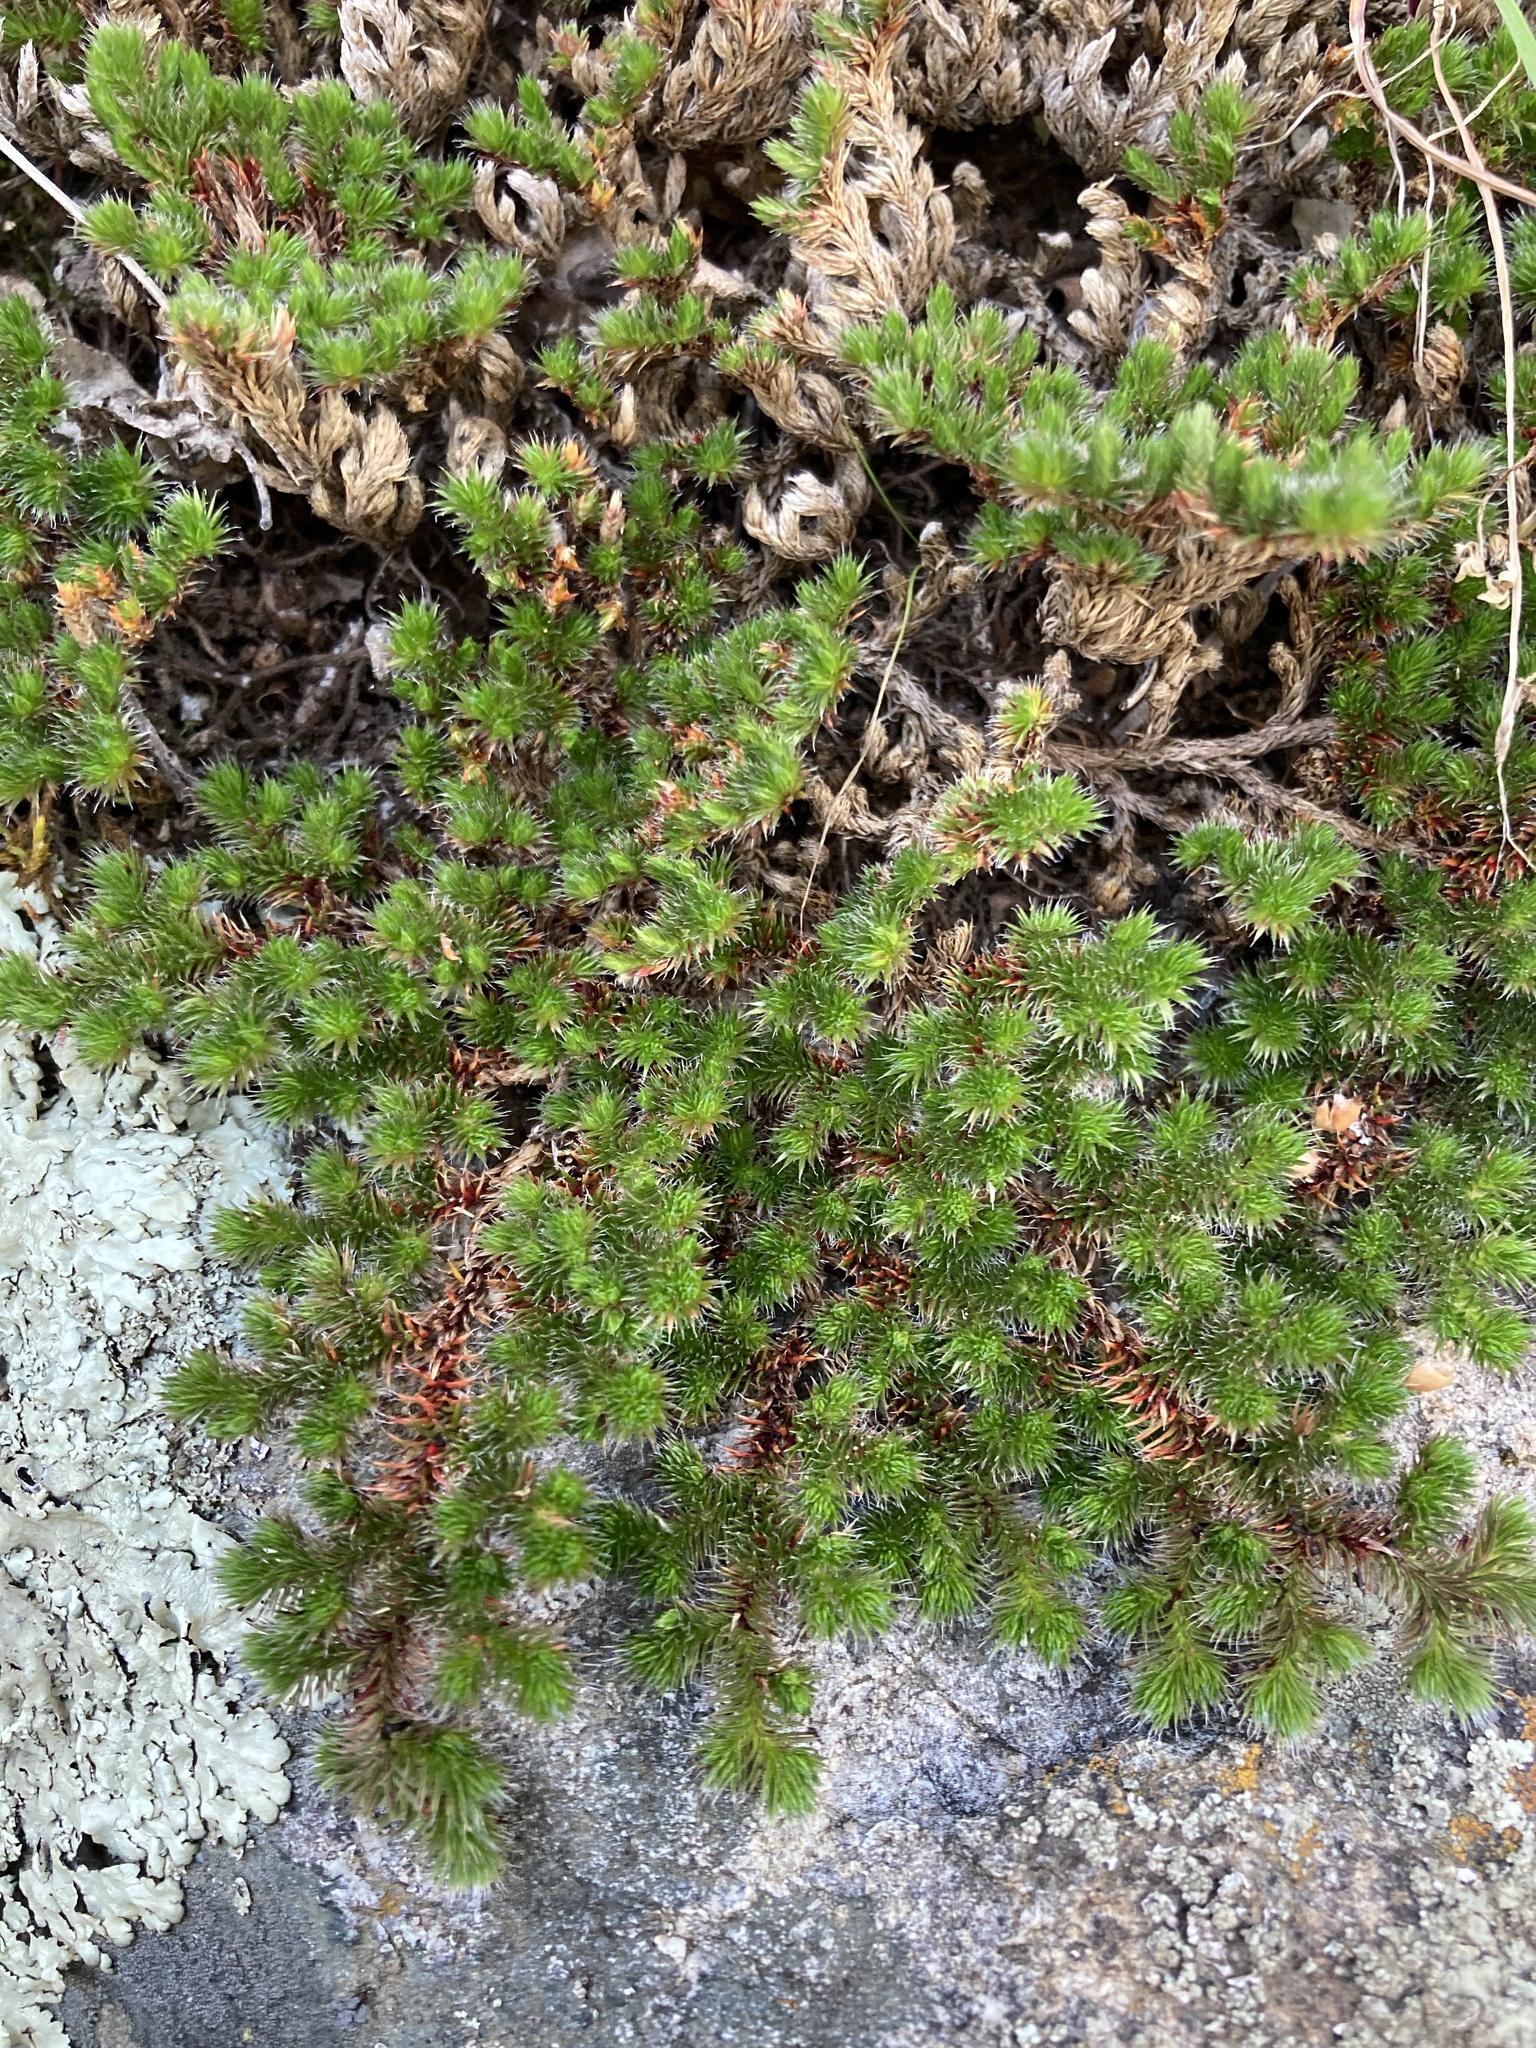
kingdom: Plantae
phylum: Tracheophyta
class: Lycopodiopsida
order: Selaginellales
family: Selaginellaceae
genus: Selaginella
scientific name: Selaginella hansenii
